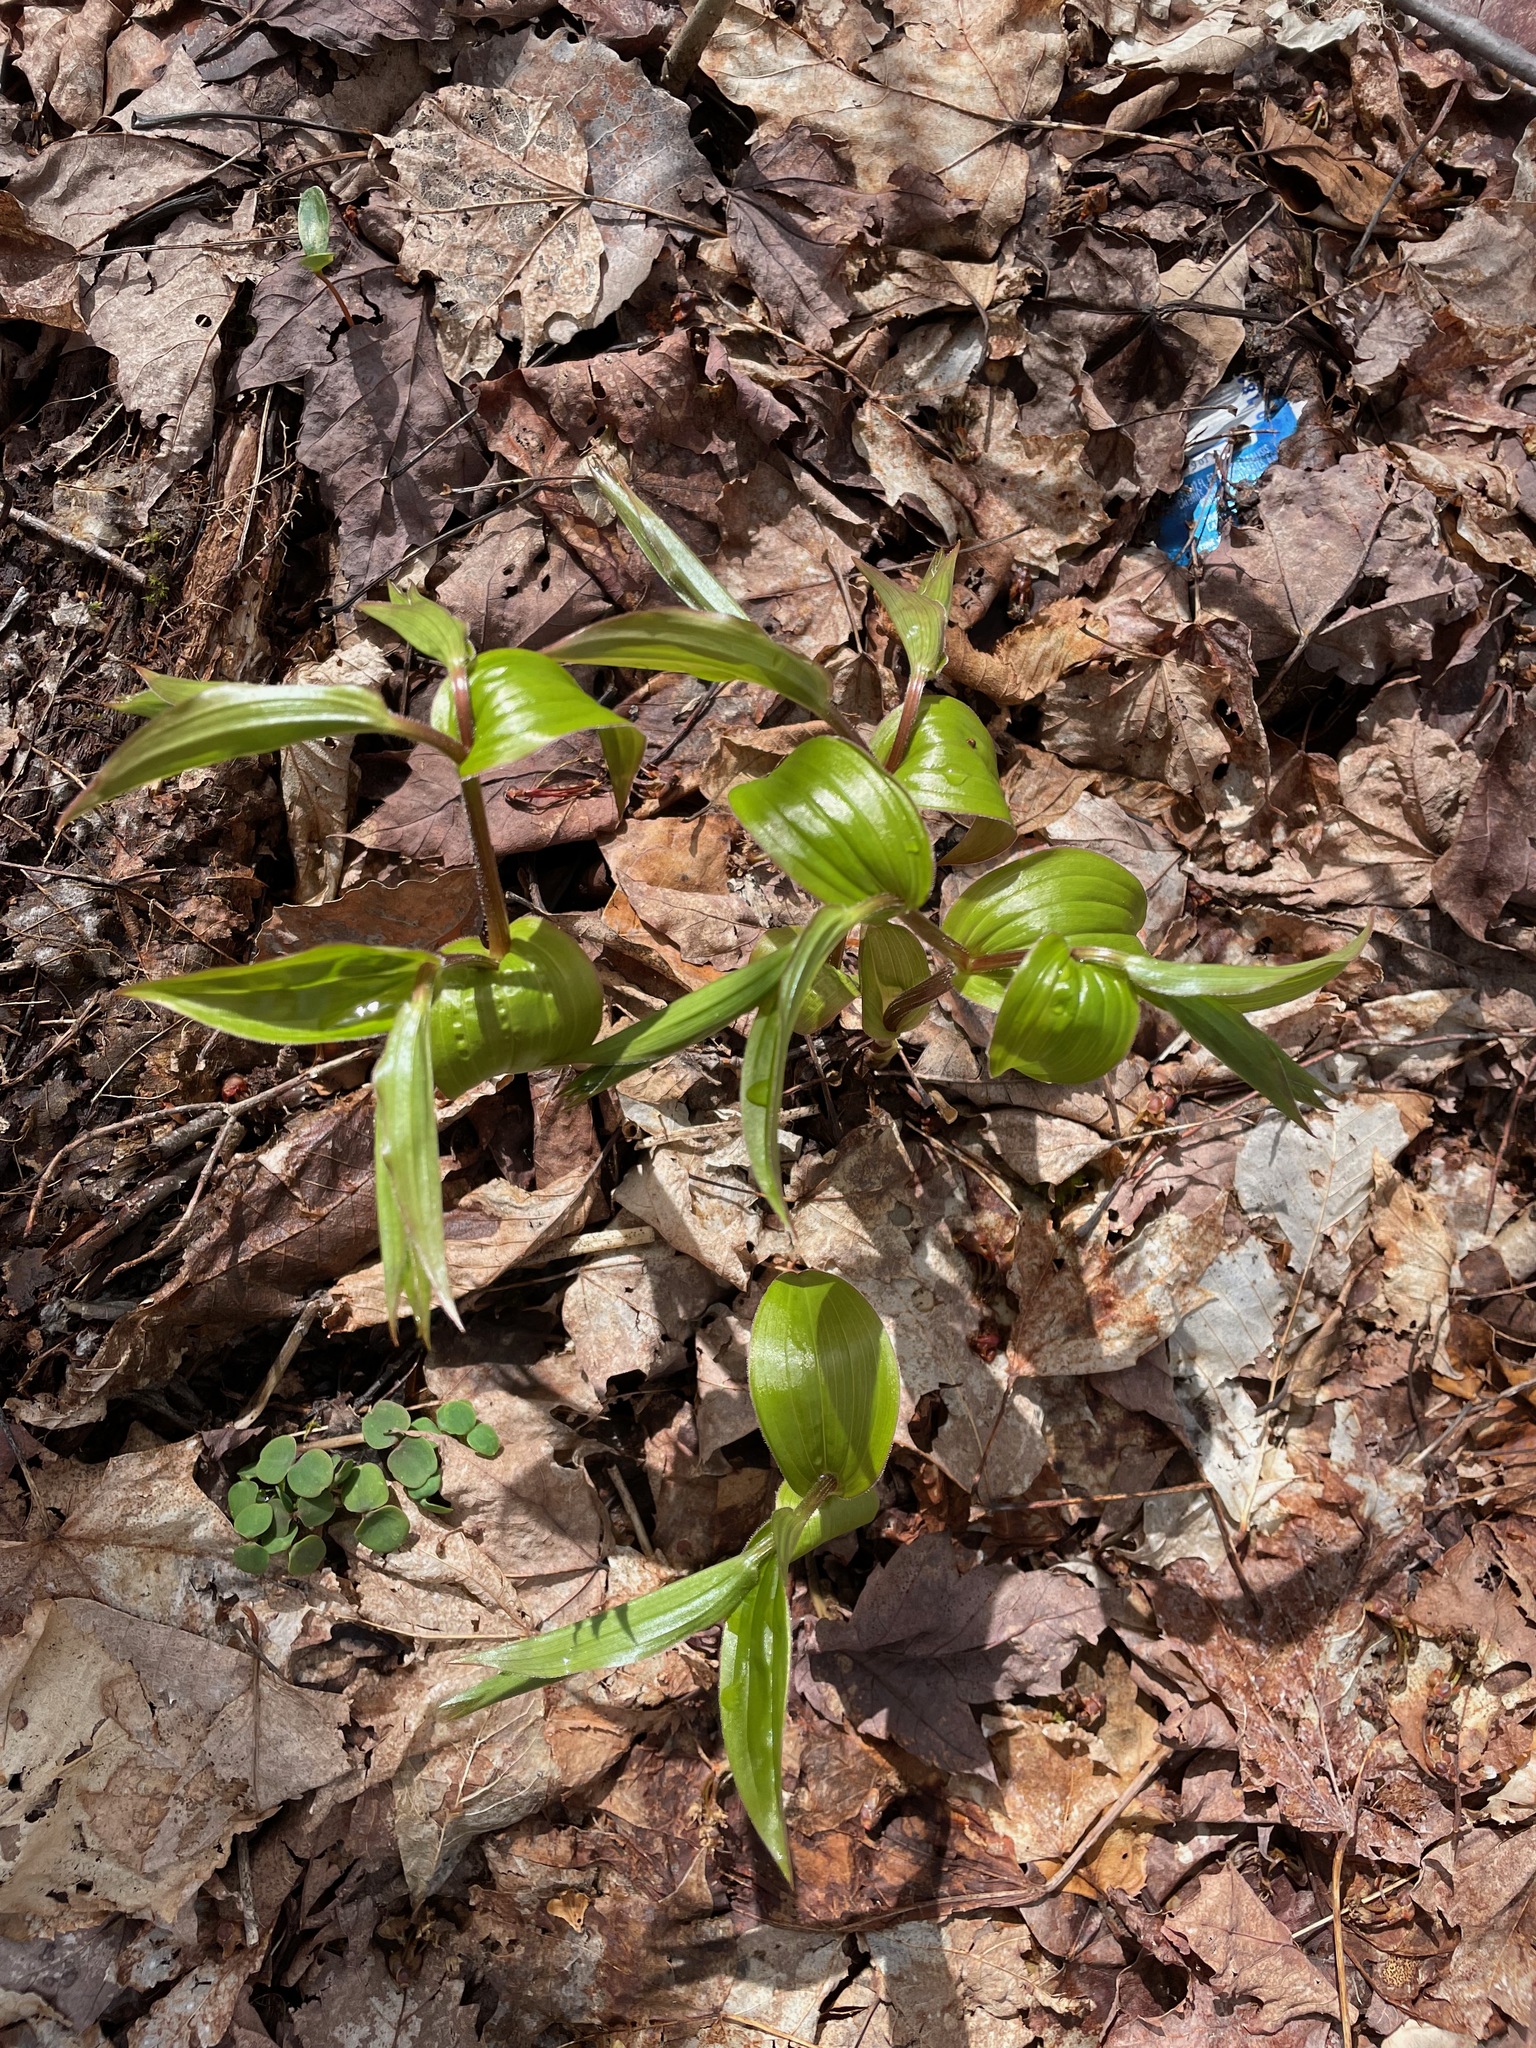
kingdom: Plantae
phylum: Tracheophyta
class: Liliopsida
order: Liliales
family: Liliaceae
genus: Streptopus
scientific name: Streptopus lanceolatus
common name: Rose mandarin
